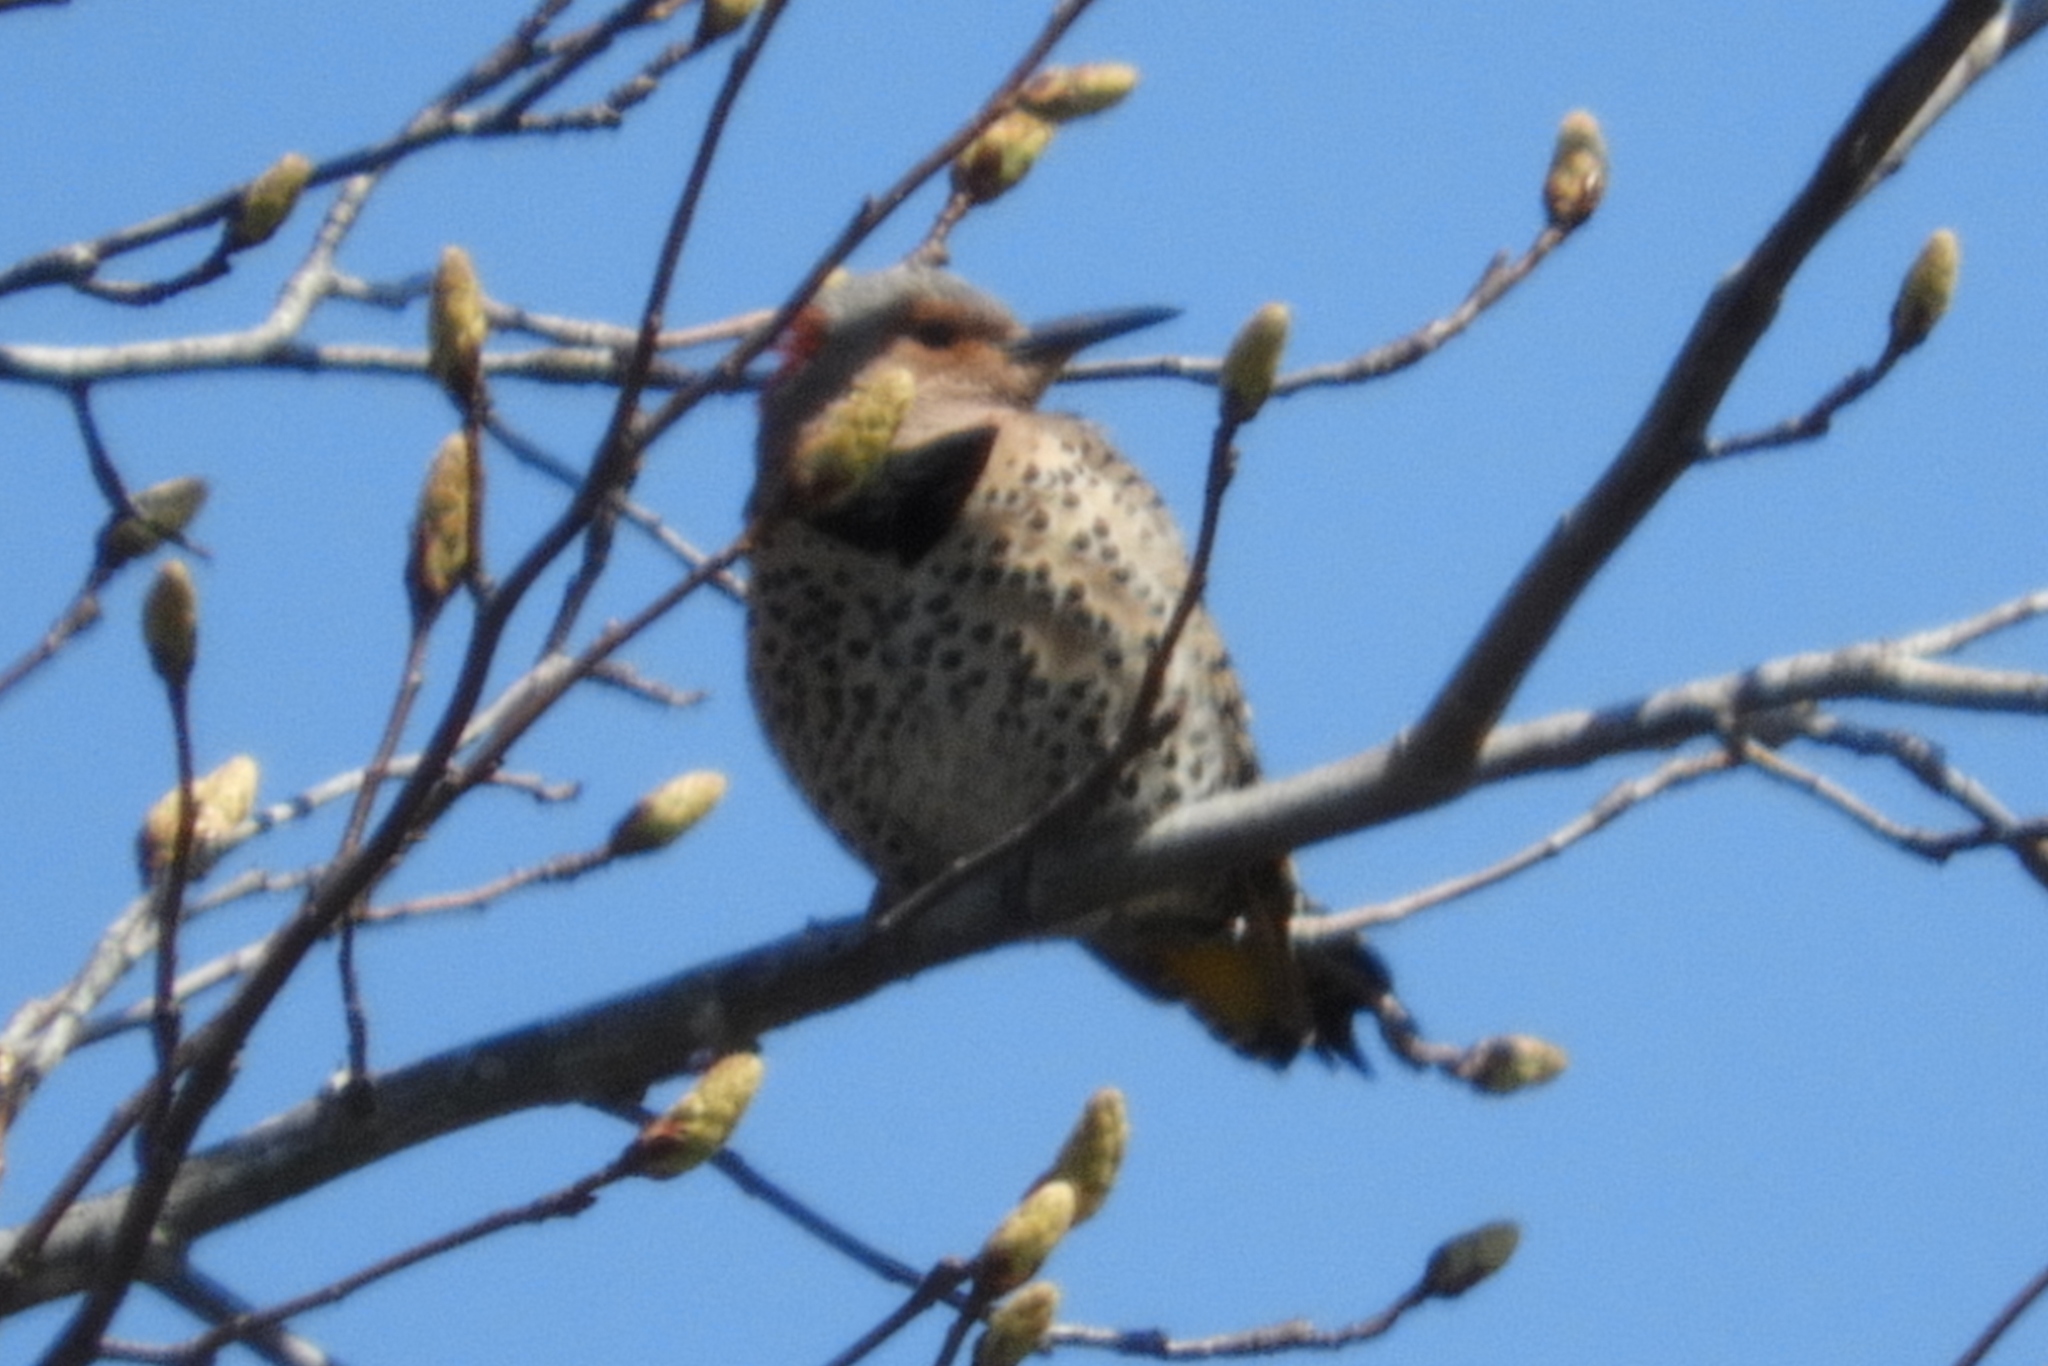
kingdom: Animalia
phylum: Chordata
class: Aves
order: Piciformes
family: Picidae
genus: Colaptes
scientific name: Colaptes auratus
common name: Northern flicker
